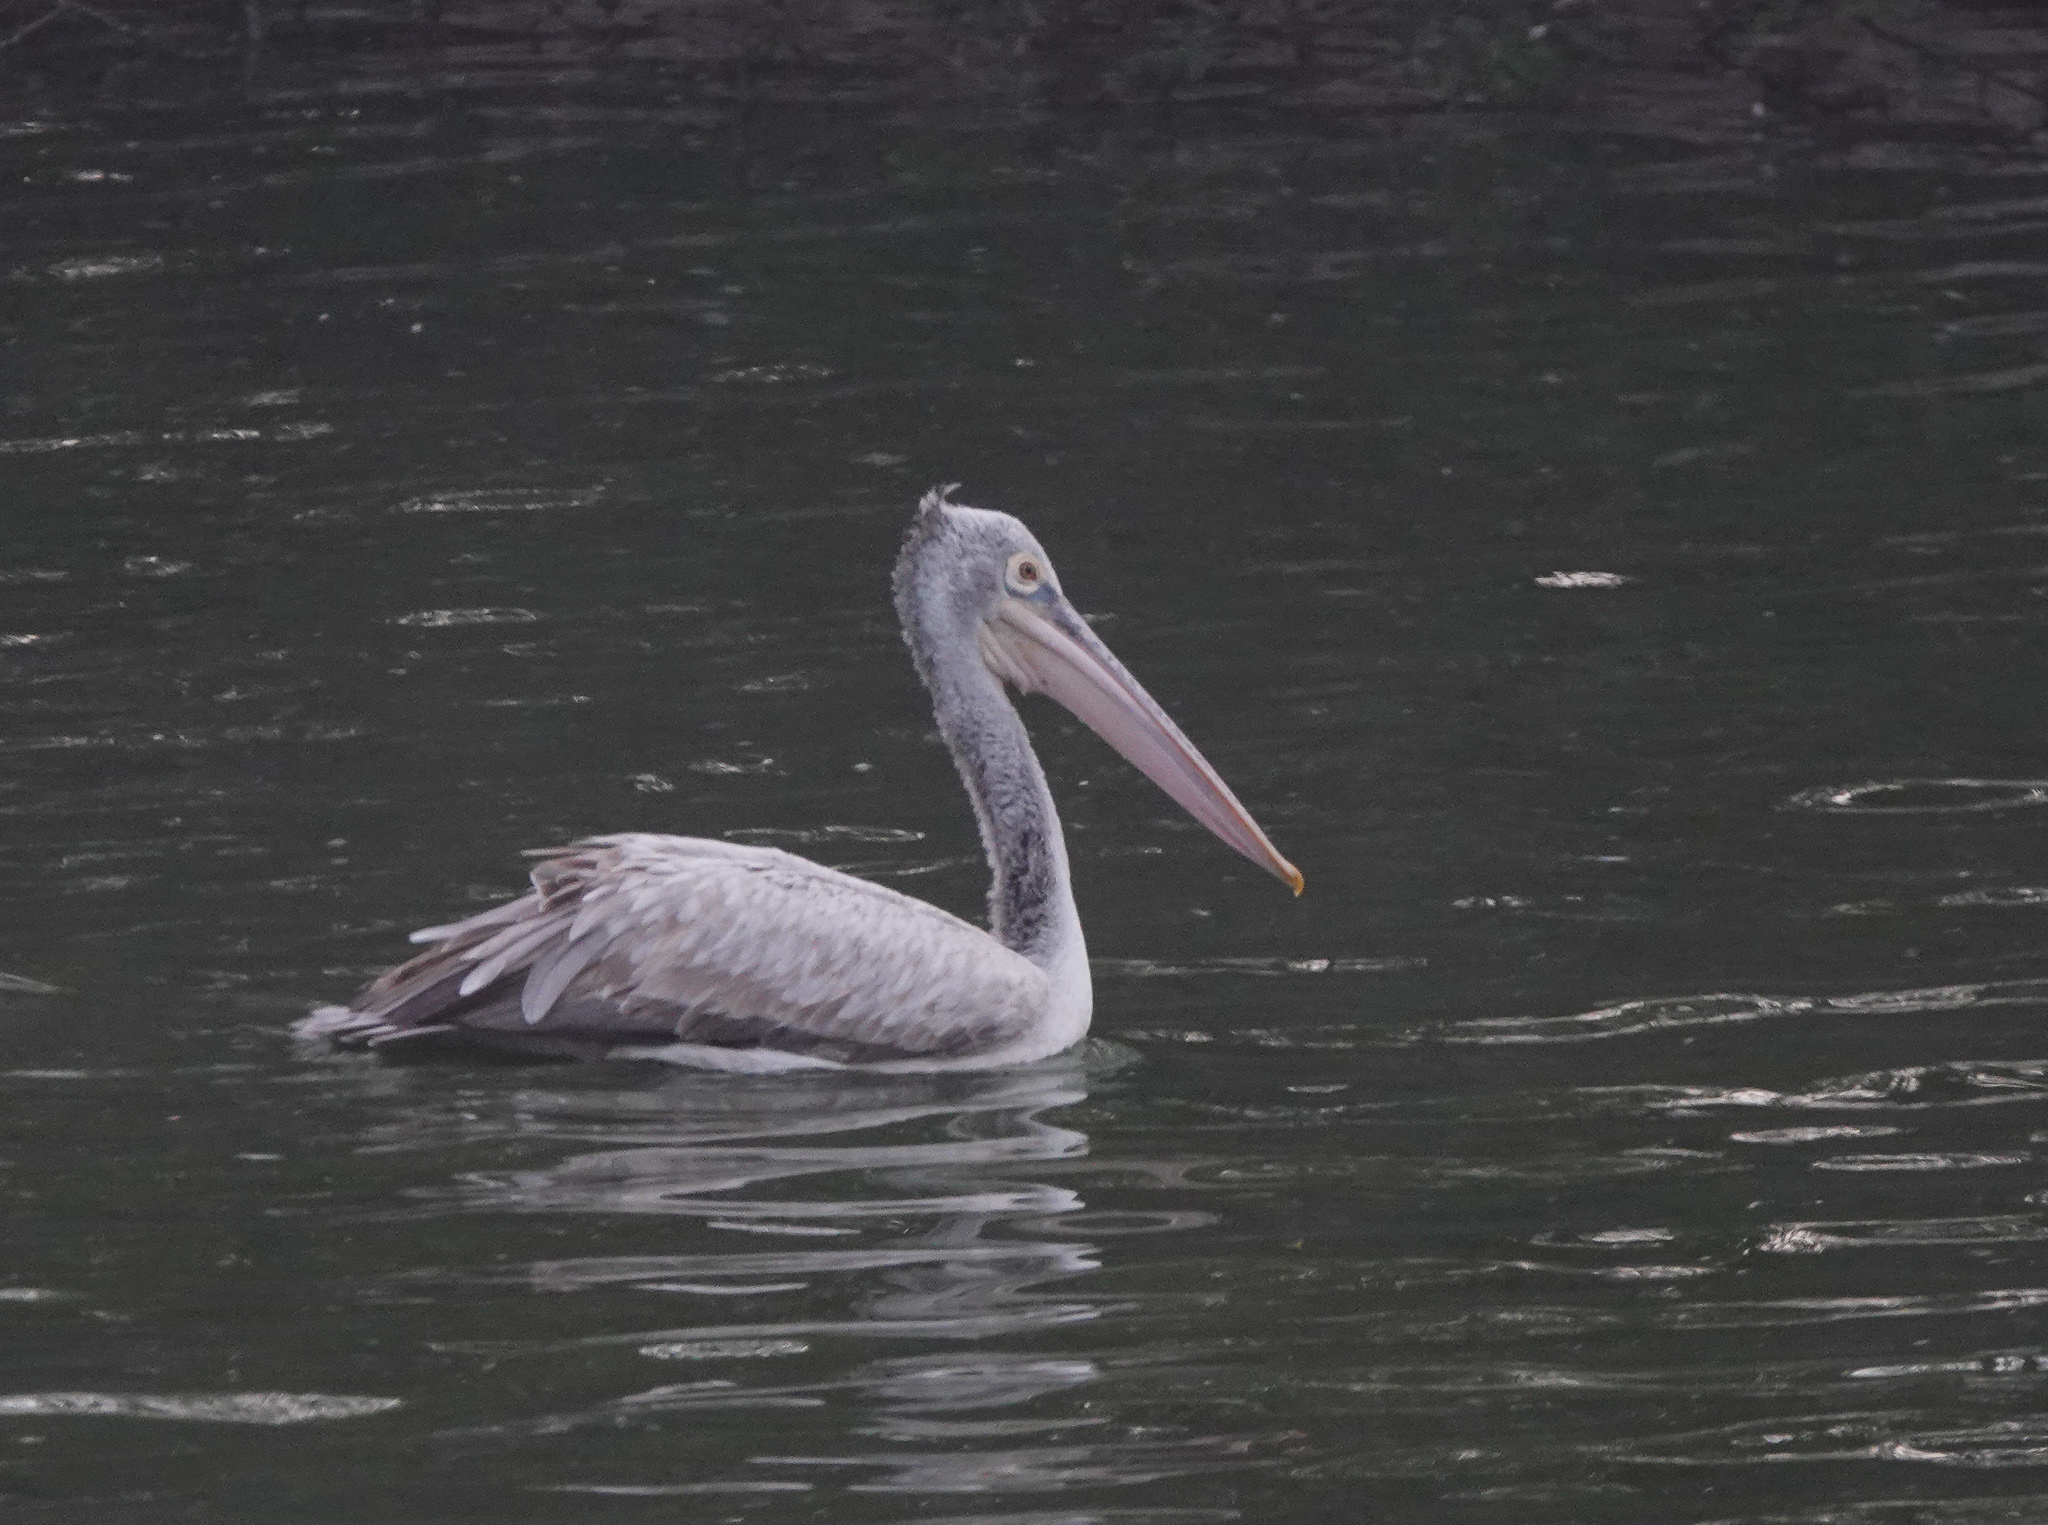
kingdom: Animalia
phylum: Chordata
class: Aves
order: Pelecaniformes
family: Pelecanidae
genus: Pelecanus
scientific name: Pelecanus philippensis
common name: Spot-billed pelican
